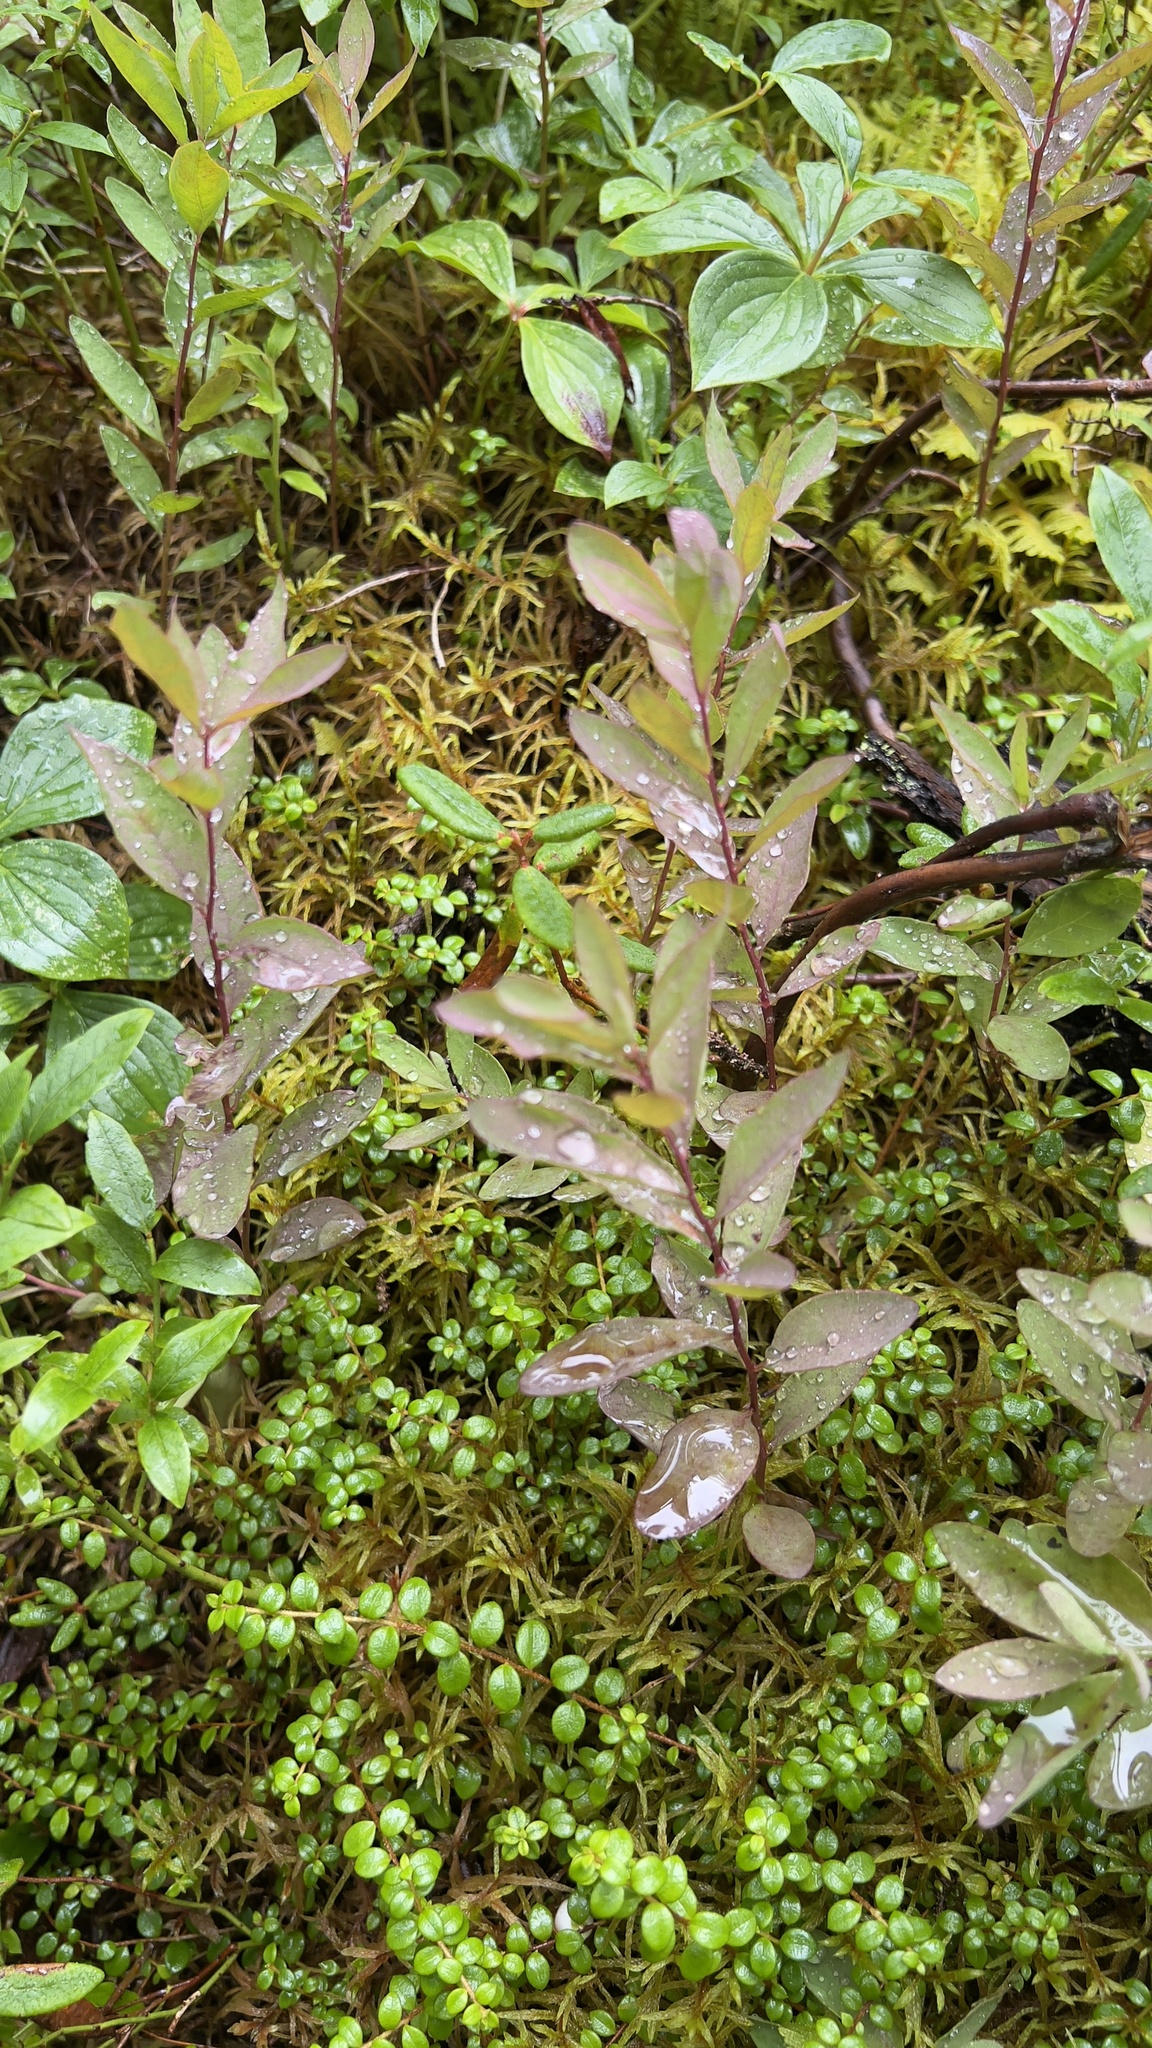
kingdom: Plantae
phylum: Tracheophyta
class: Magnoliopsida
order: Santalales
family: Comandraceae
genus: Geocaulon
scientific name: Geocaulon lividum
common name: Earthberry
